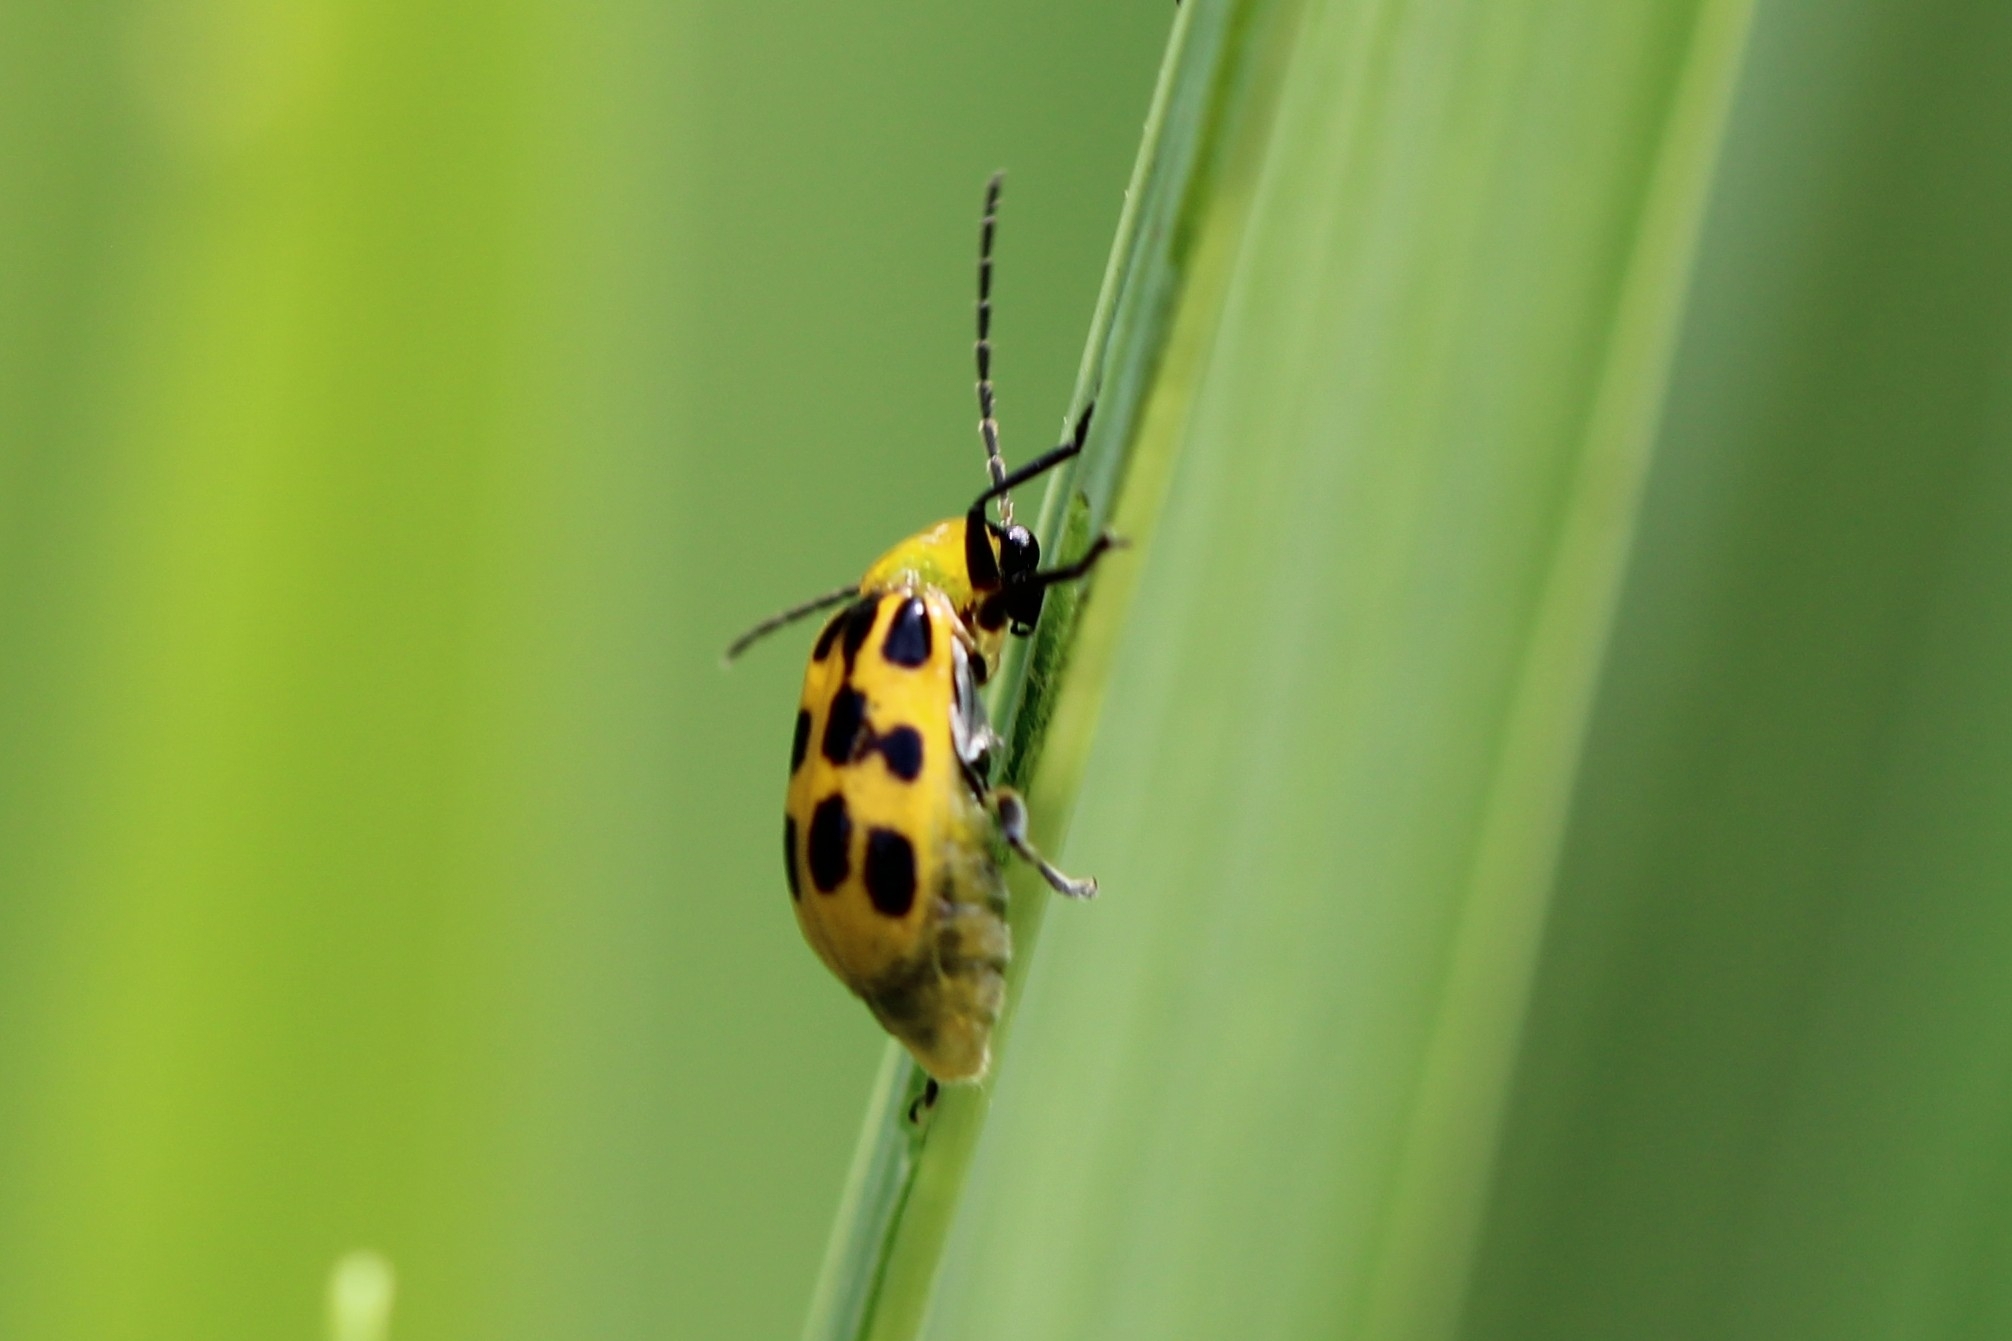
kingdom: Animalia
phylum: Arthropoda
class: Insecta
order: Coleoptera
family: Chrysomelidae
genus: Diabrotica
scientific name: Diabrotica undecimpunctata
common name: Spotted cucumber beetle
